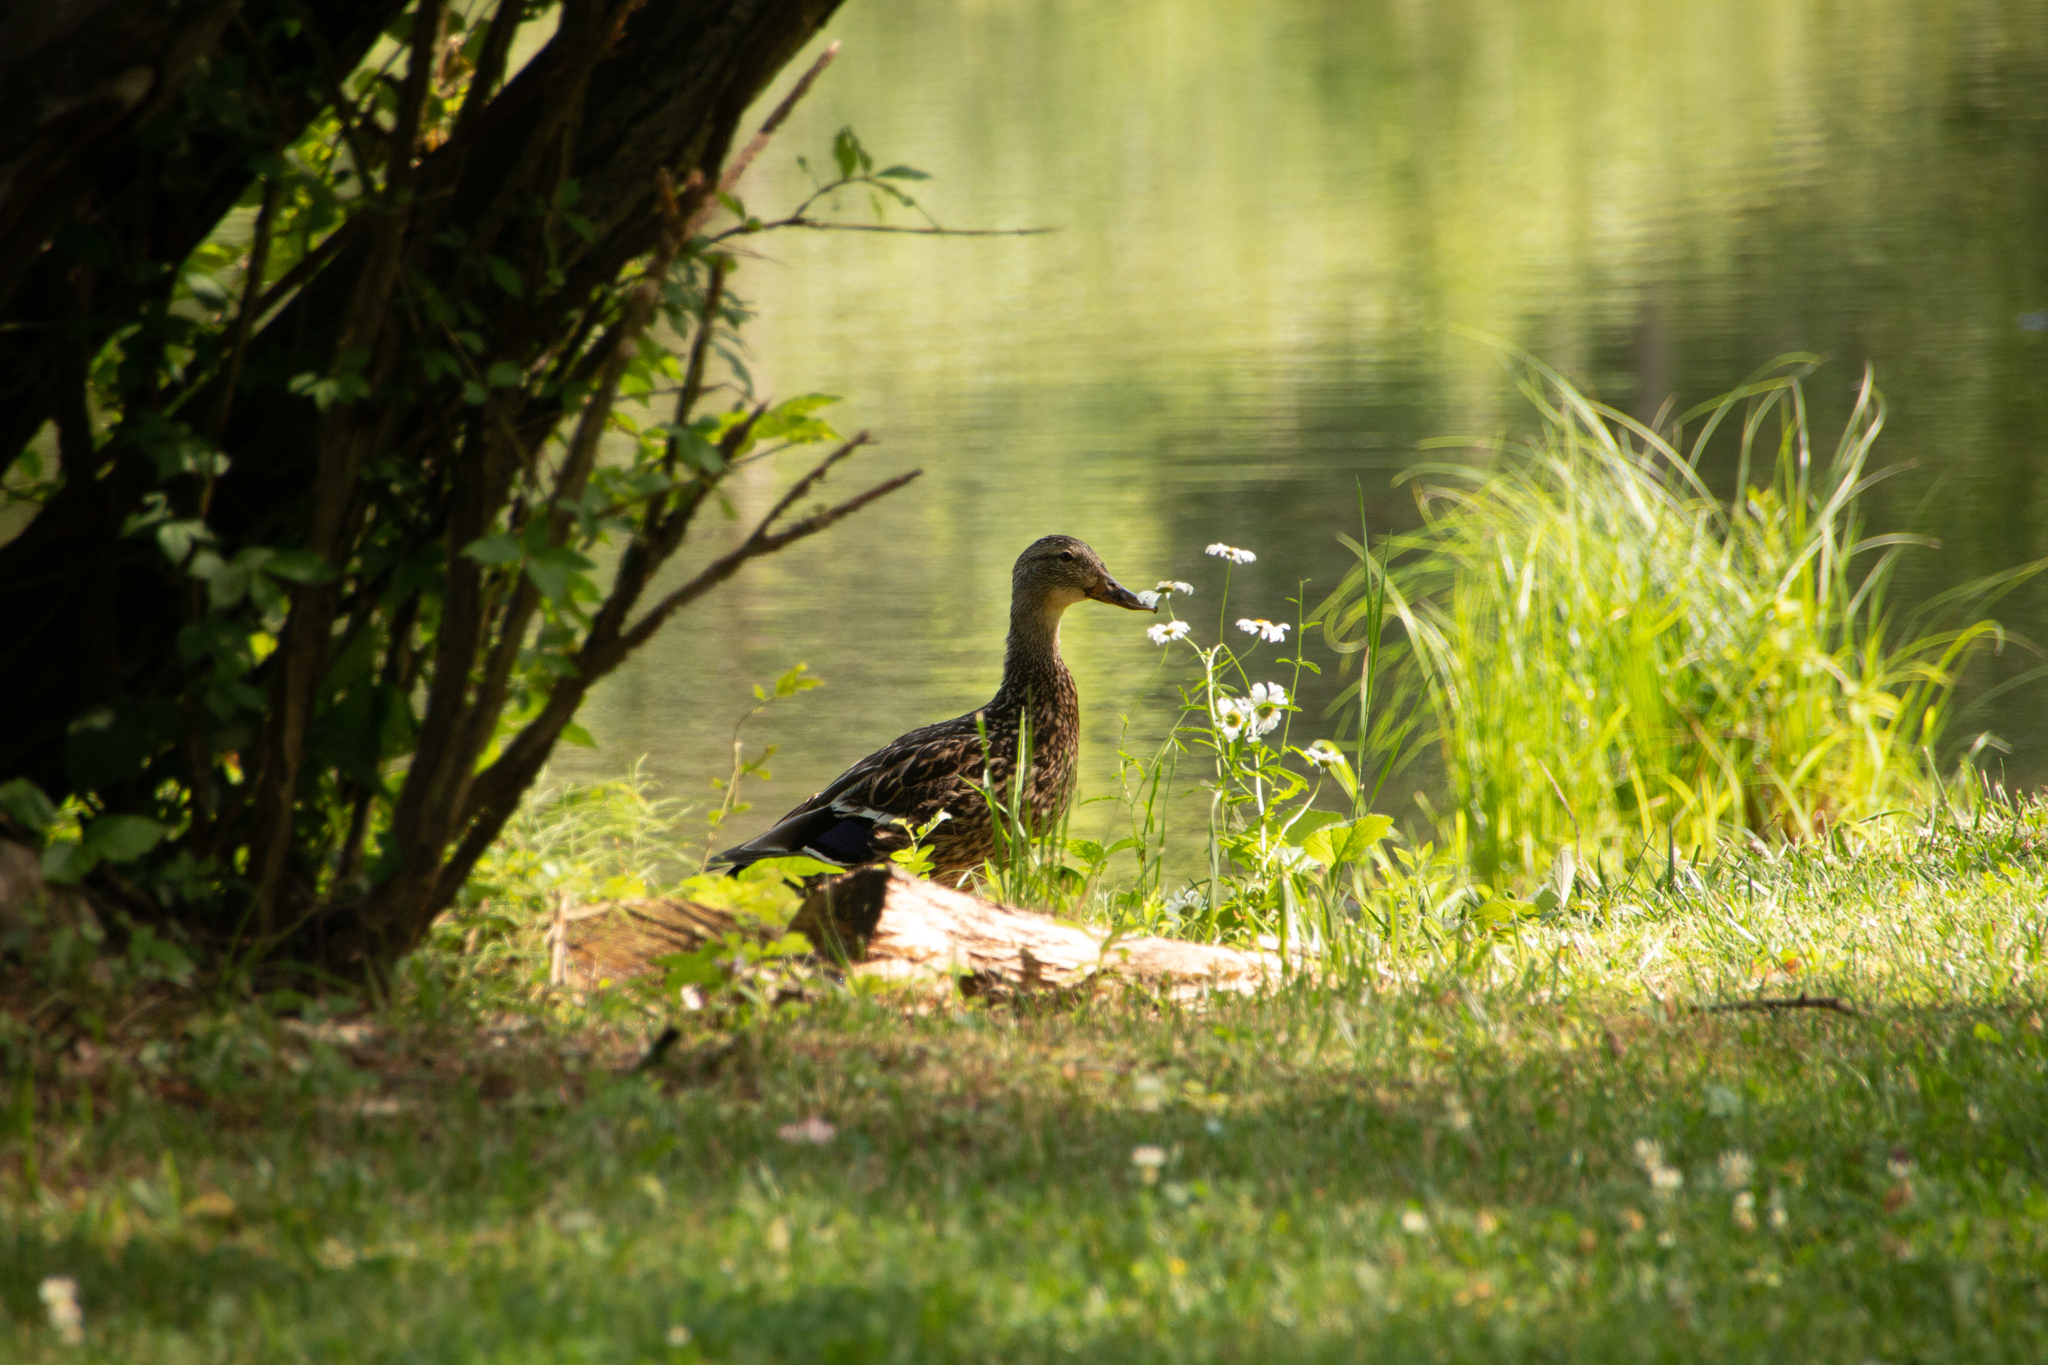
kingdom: Animalia
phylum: Chordata
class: Aves
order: Anseriformes
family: Anatidae
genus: Anas
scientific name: Anas platyrhynchos
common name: Mallard
